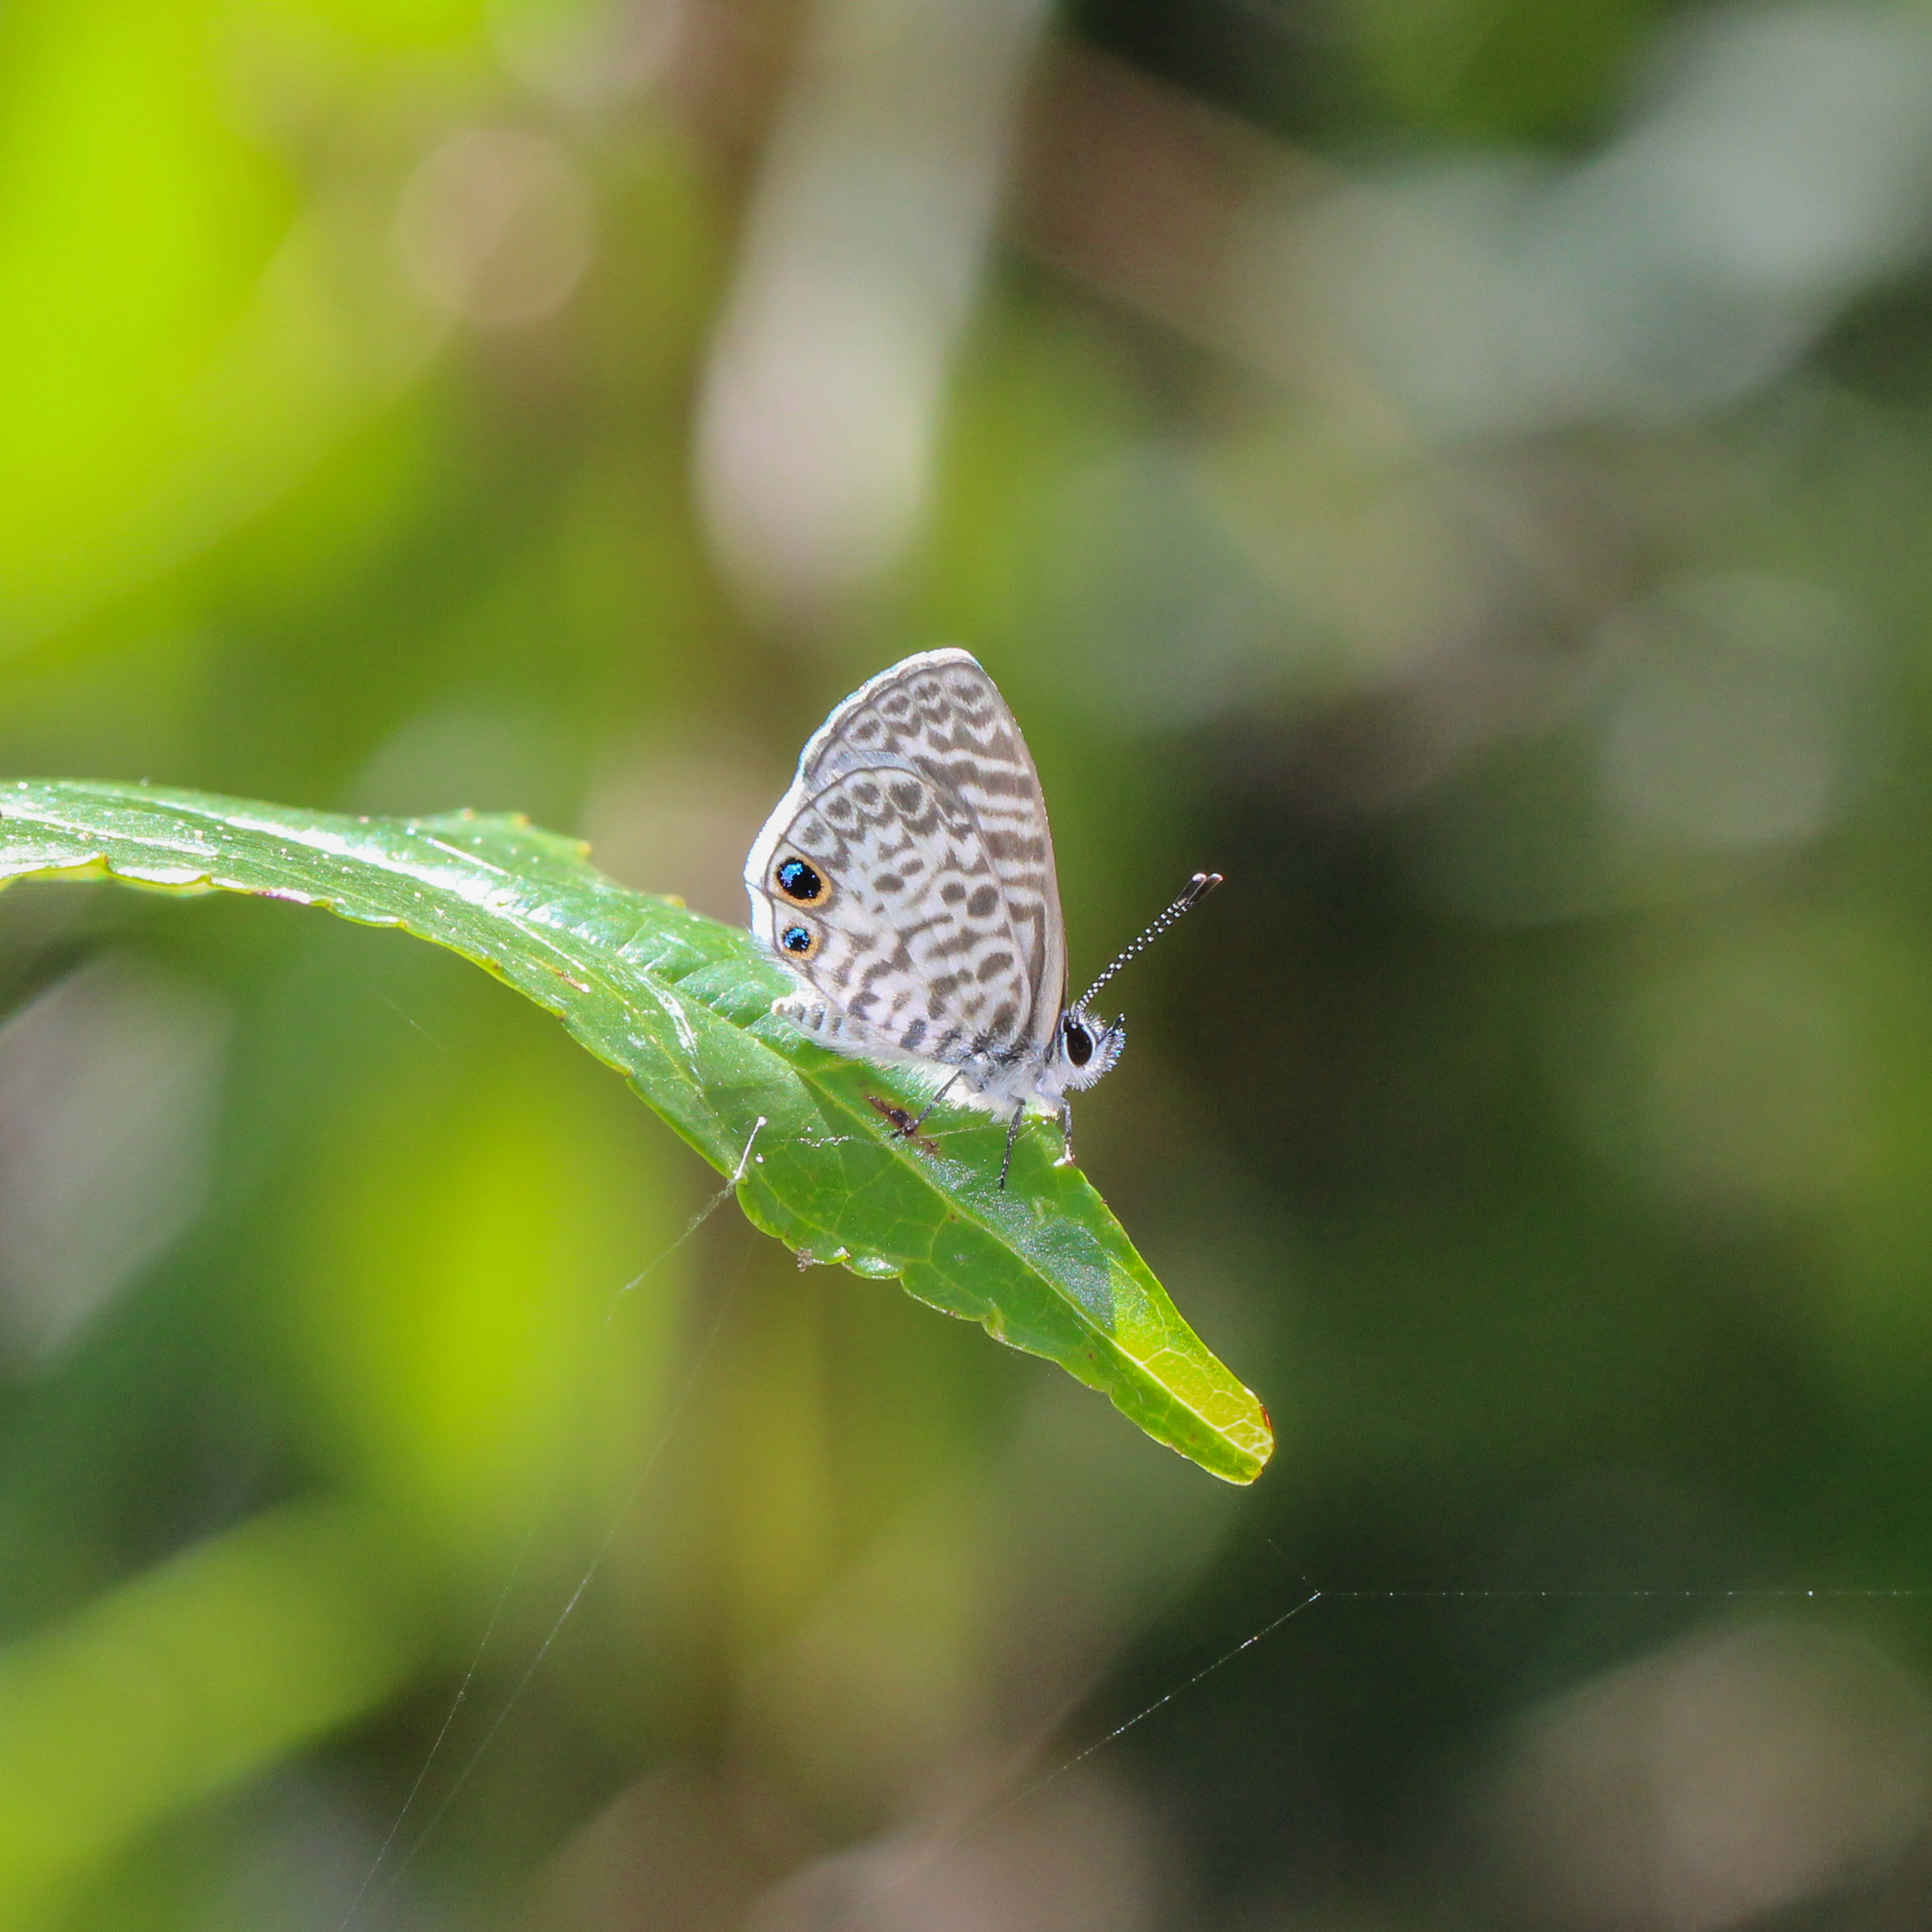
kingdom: Animalia
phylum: Arthropoda
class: Insecta
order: Lepidoptera
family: Lycaenidae
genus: Leptotes
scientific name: Leptotes cassius
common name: Cassius blue
